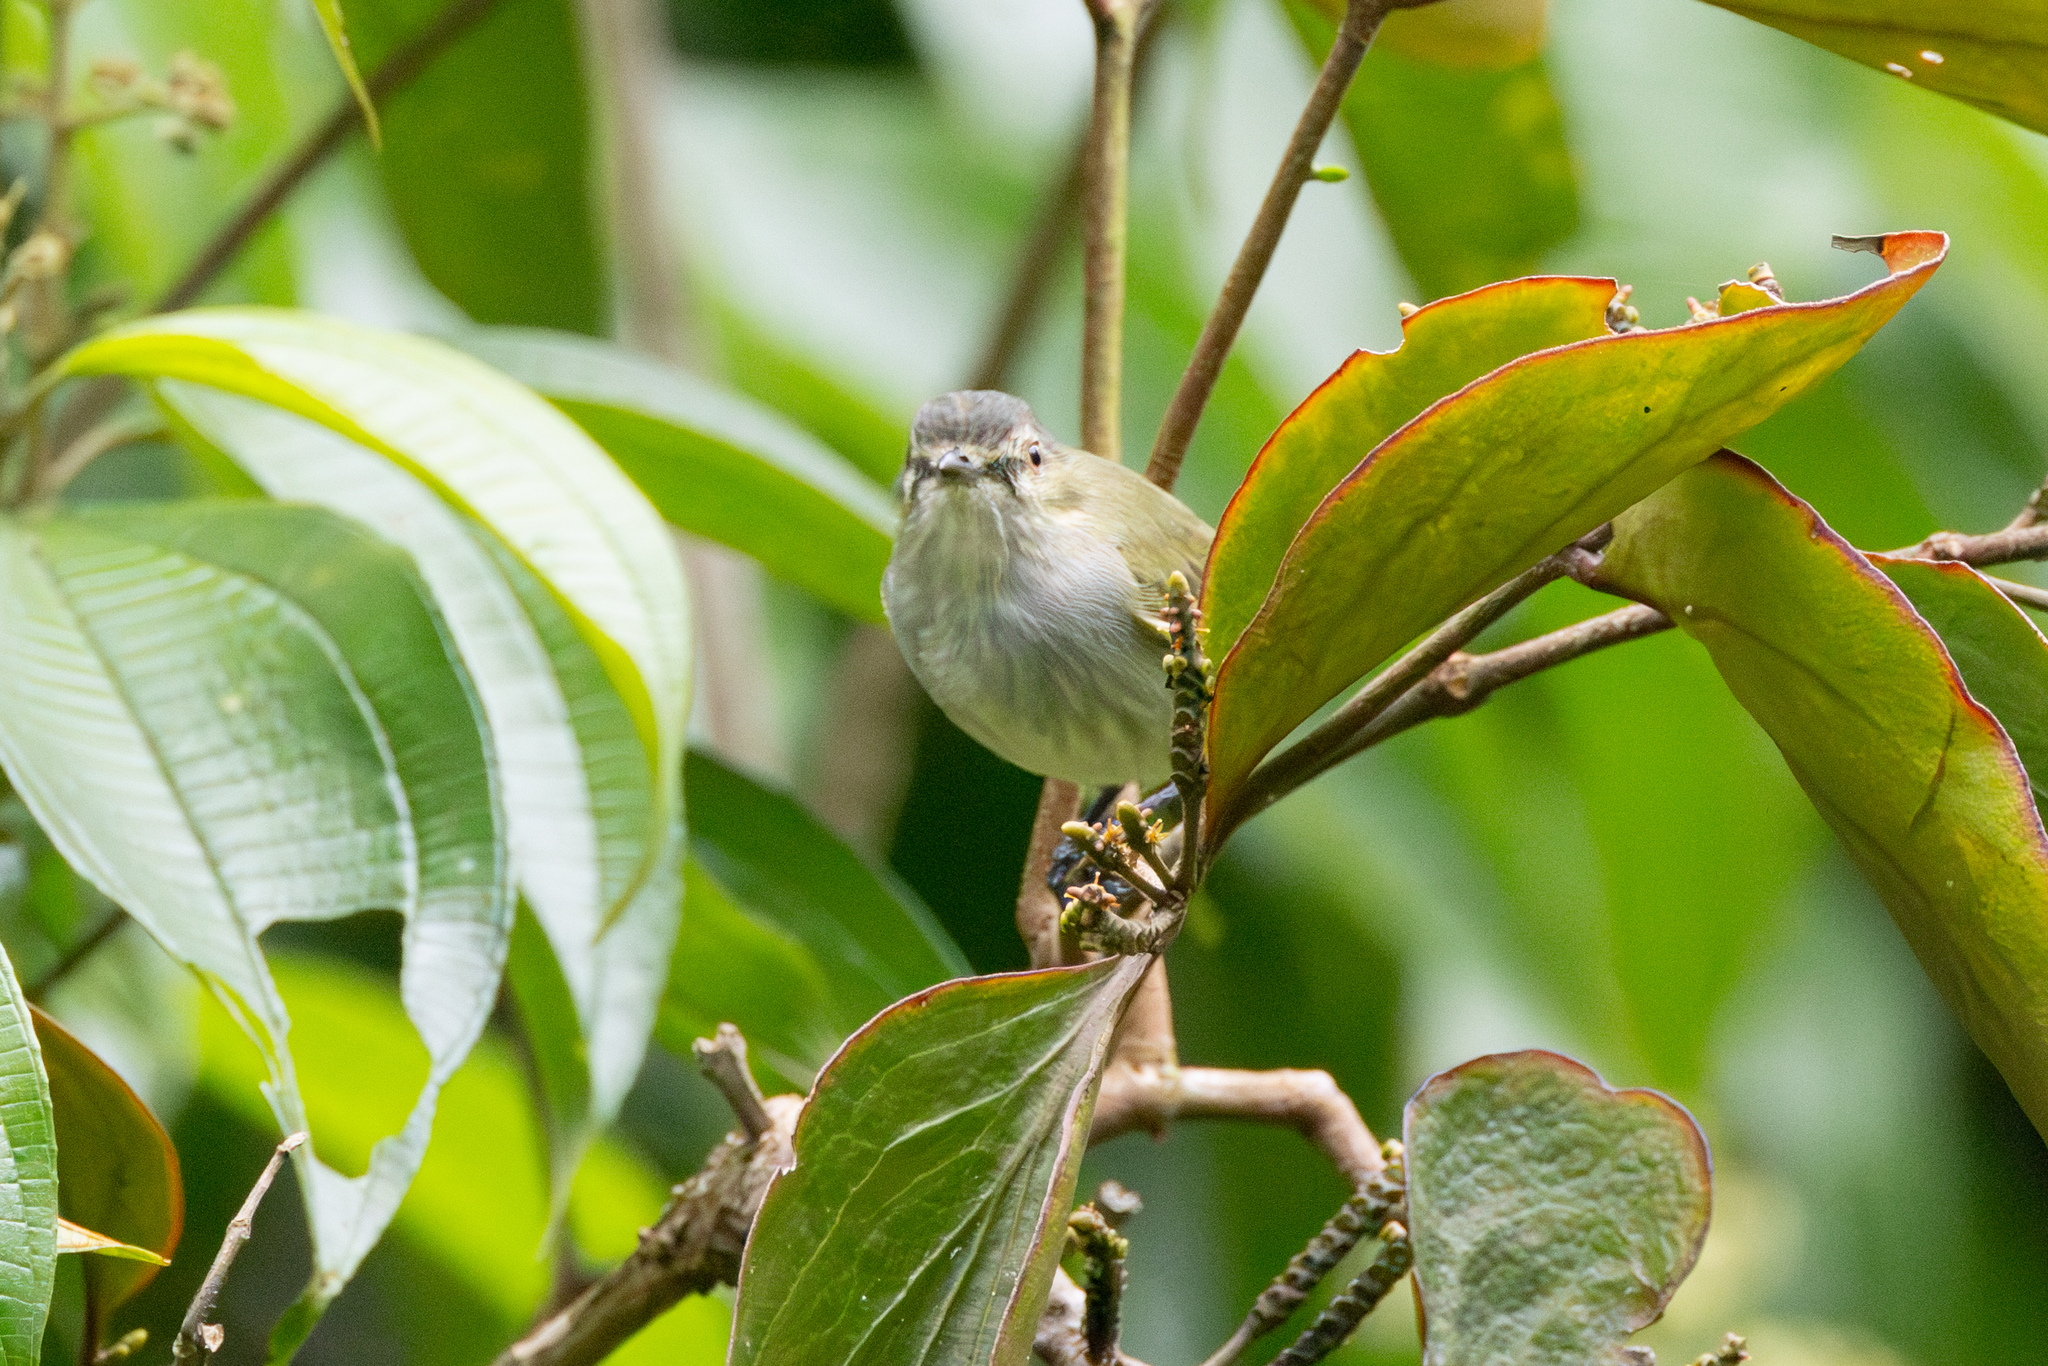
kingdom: Animalia
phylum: Chordata
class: Aves
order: Passeriformes
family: Tyrannidae
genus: Zimmerius
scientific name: Zimmerius vilissimus
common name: Paltry tyrannulet
